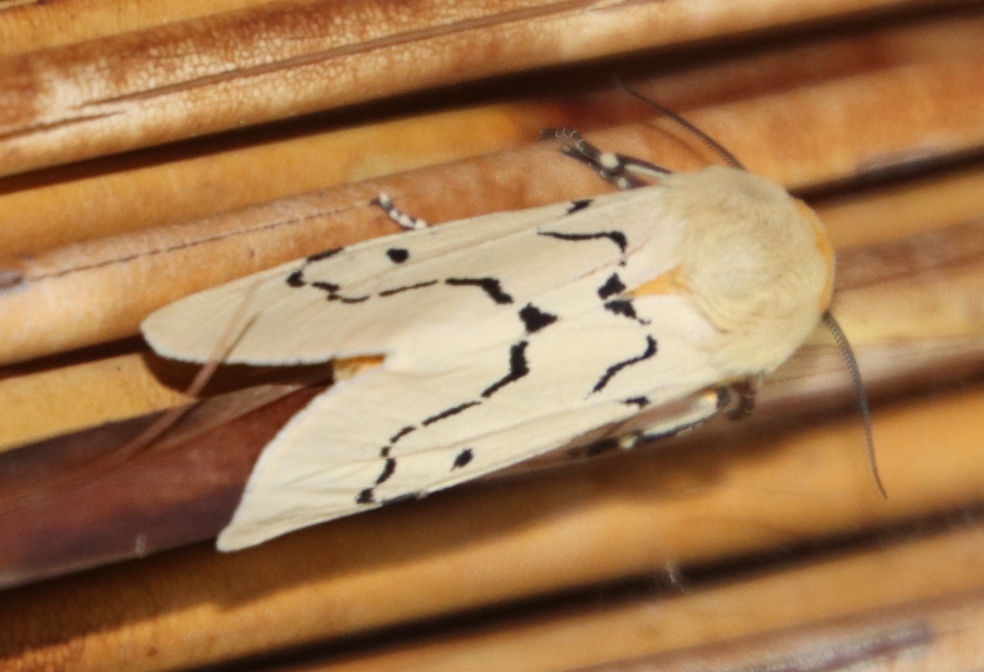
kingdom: Animalia
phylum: Arthropoda
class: Insecta
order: Lepidoptera
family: Erebidae
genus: Leucaloa
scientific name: Leucaloa eugraphica
